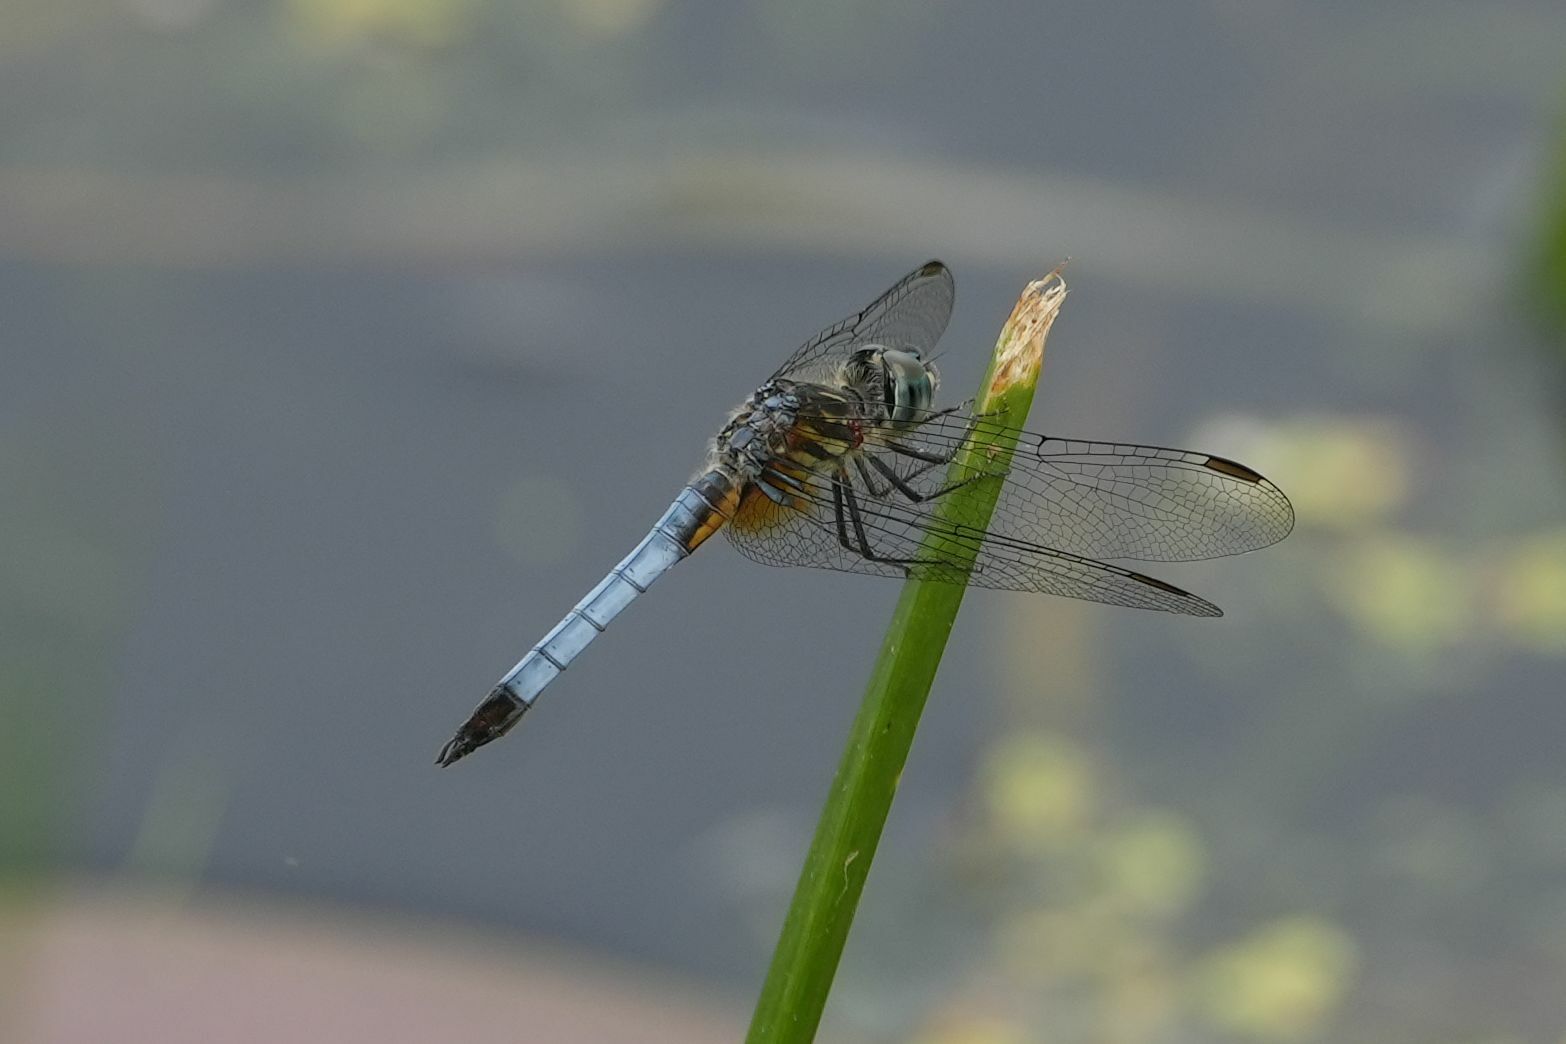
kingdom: Animalia
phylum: Arthropoda
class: Insecta
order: Odonata
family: Libellulidae
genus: Pachydiplax
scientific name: Pachydiplax longipennis
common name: Blue dasher
